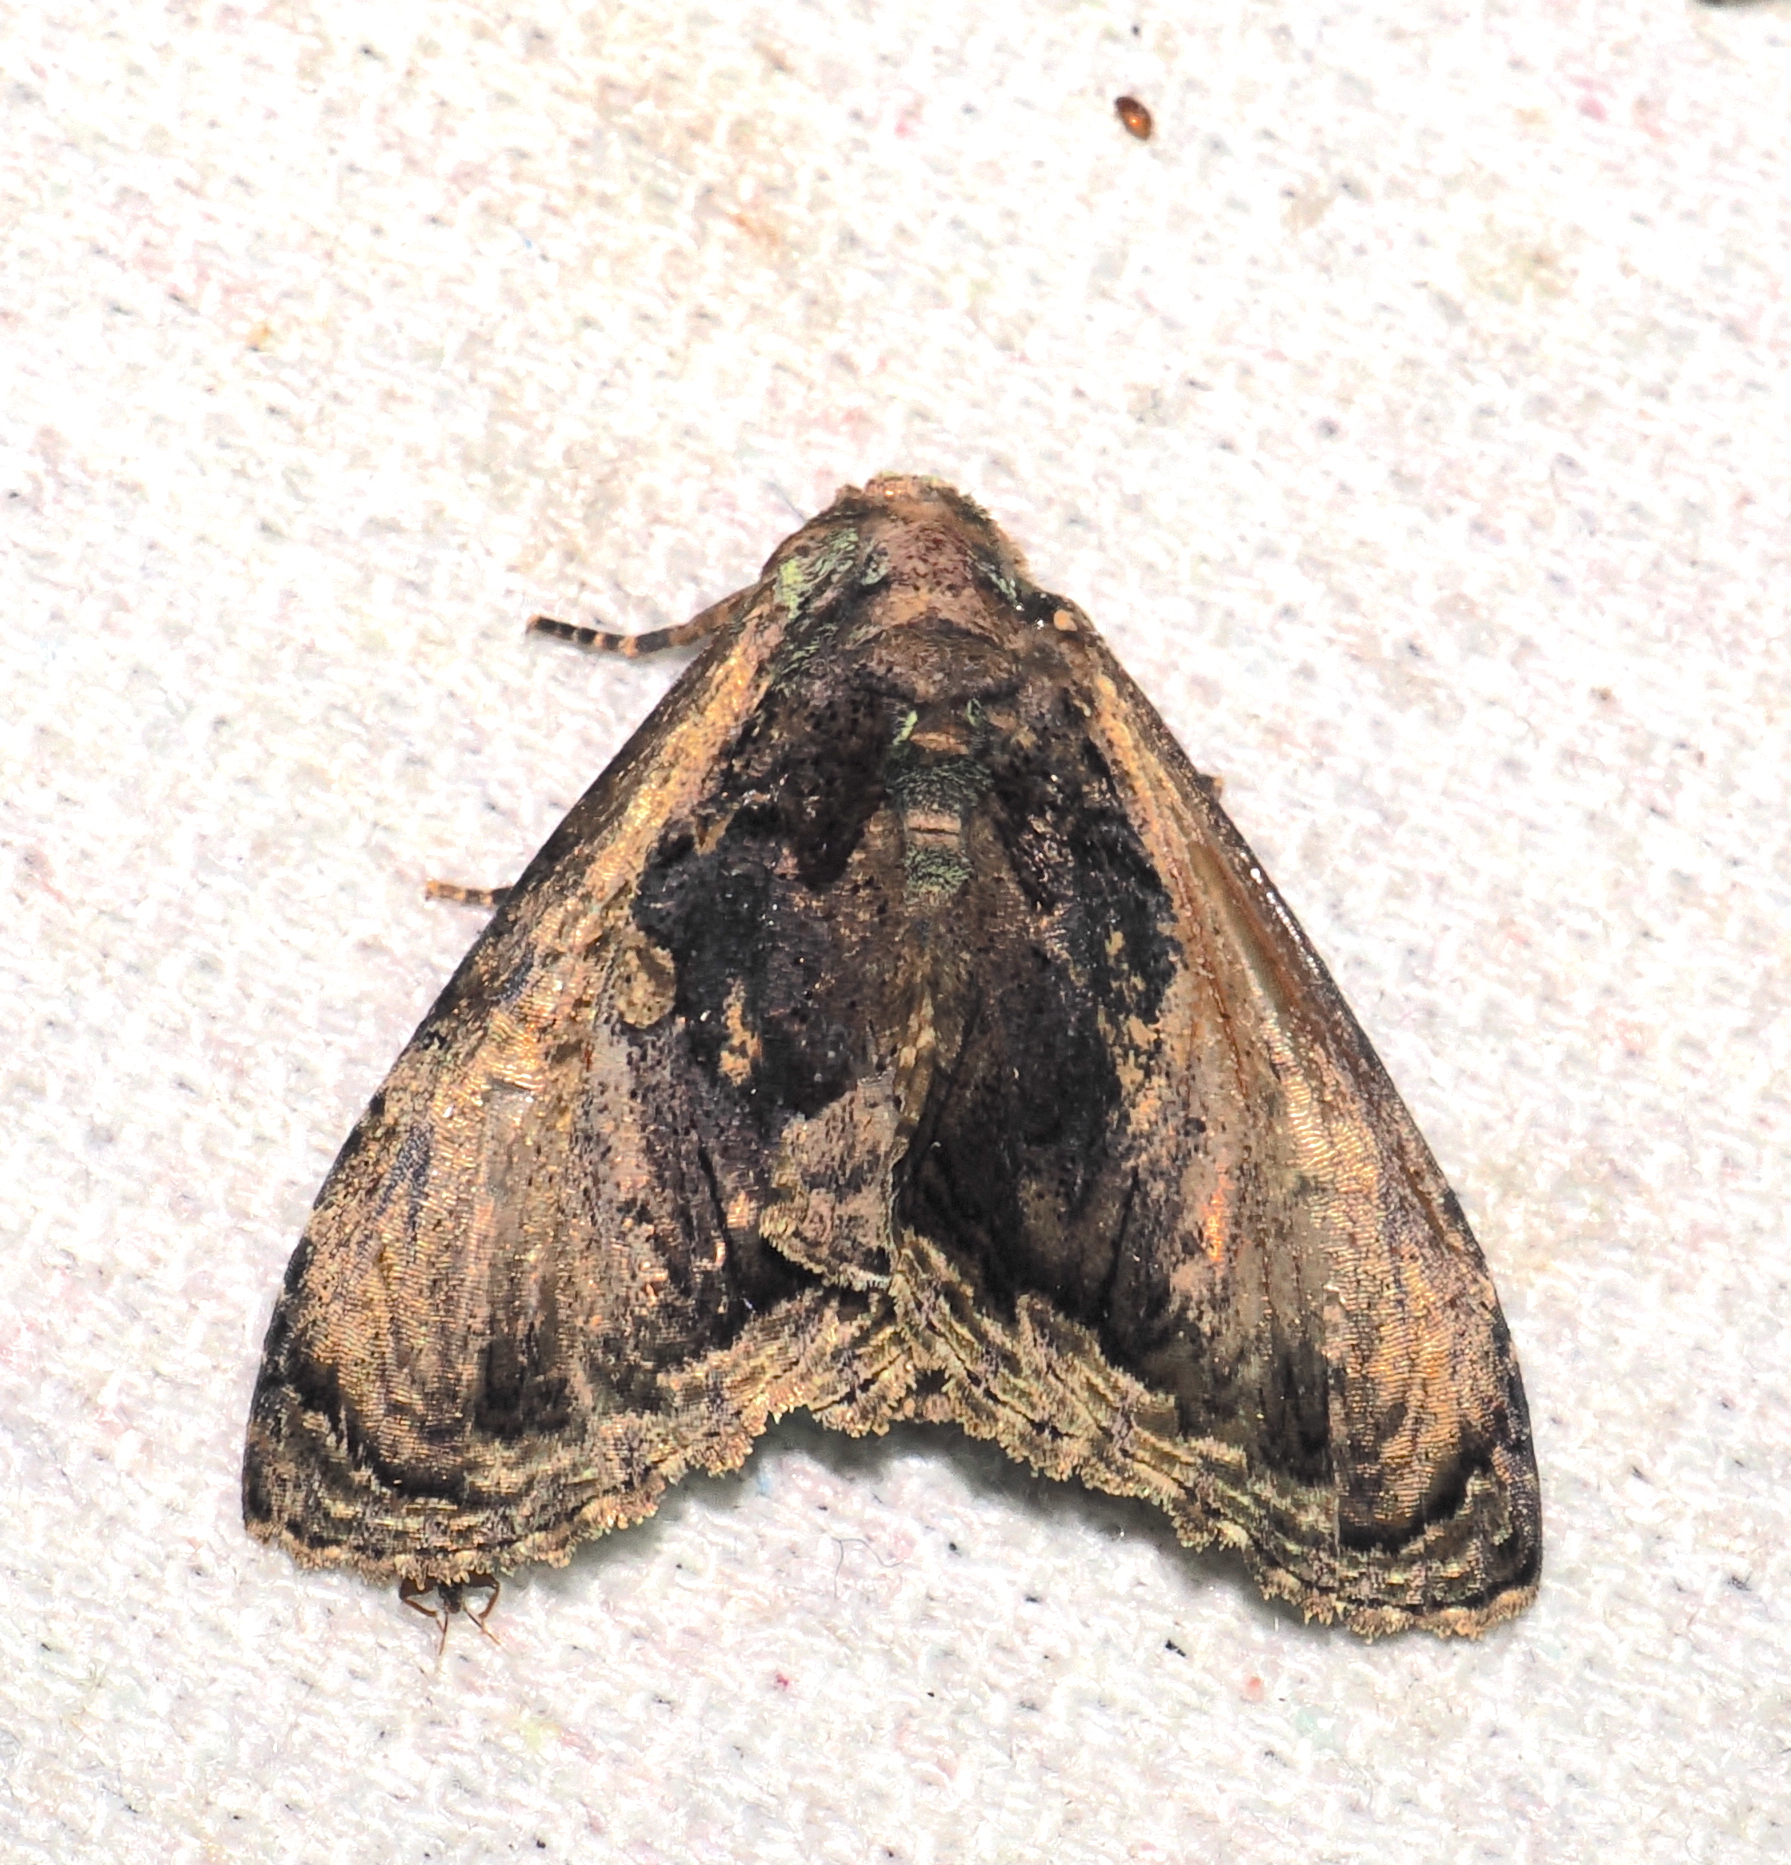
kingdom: Animalia
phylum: Arthropoda
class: Insecta
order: Lepidoptera
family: Erebidae
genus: Lepidodes
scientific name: Lepidodes limbulata
